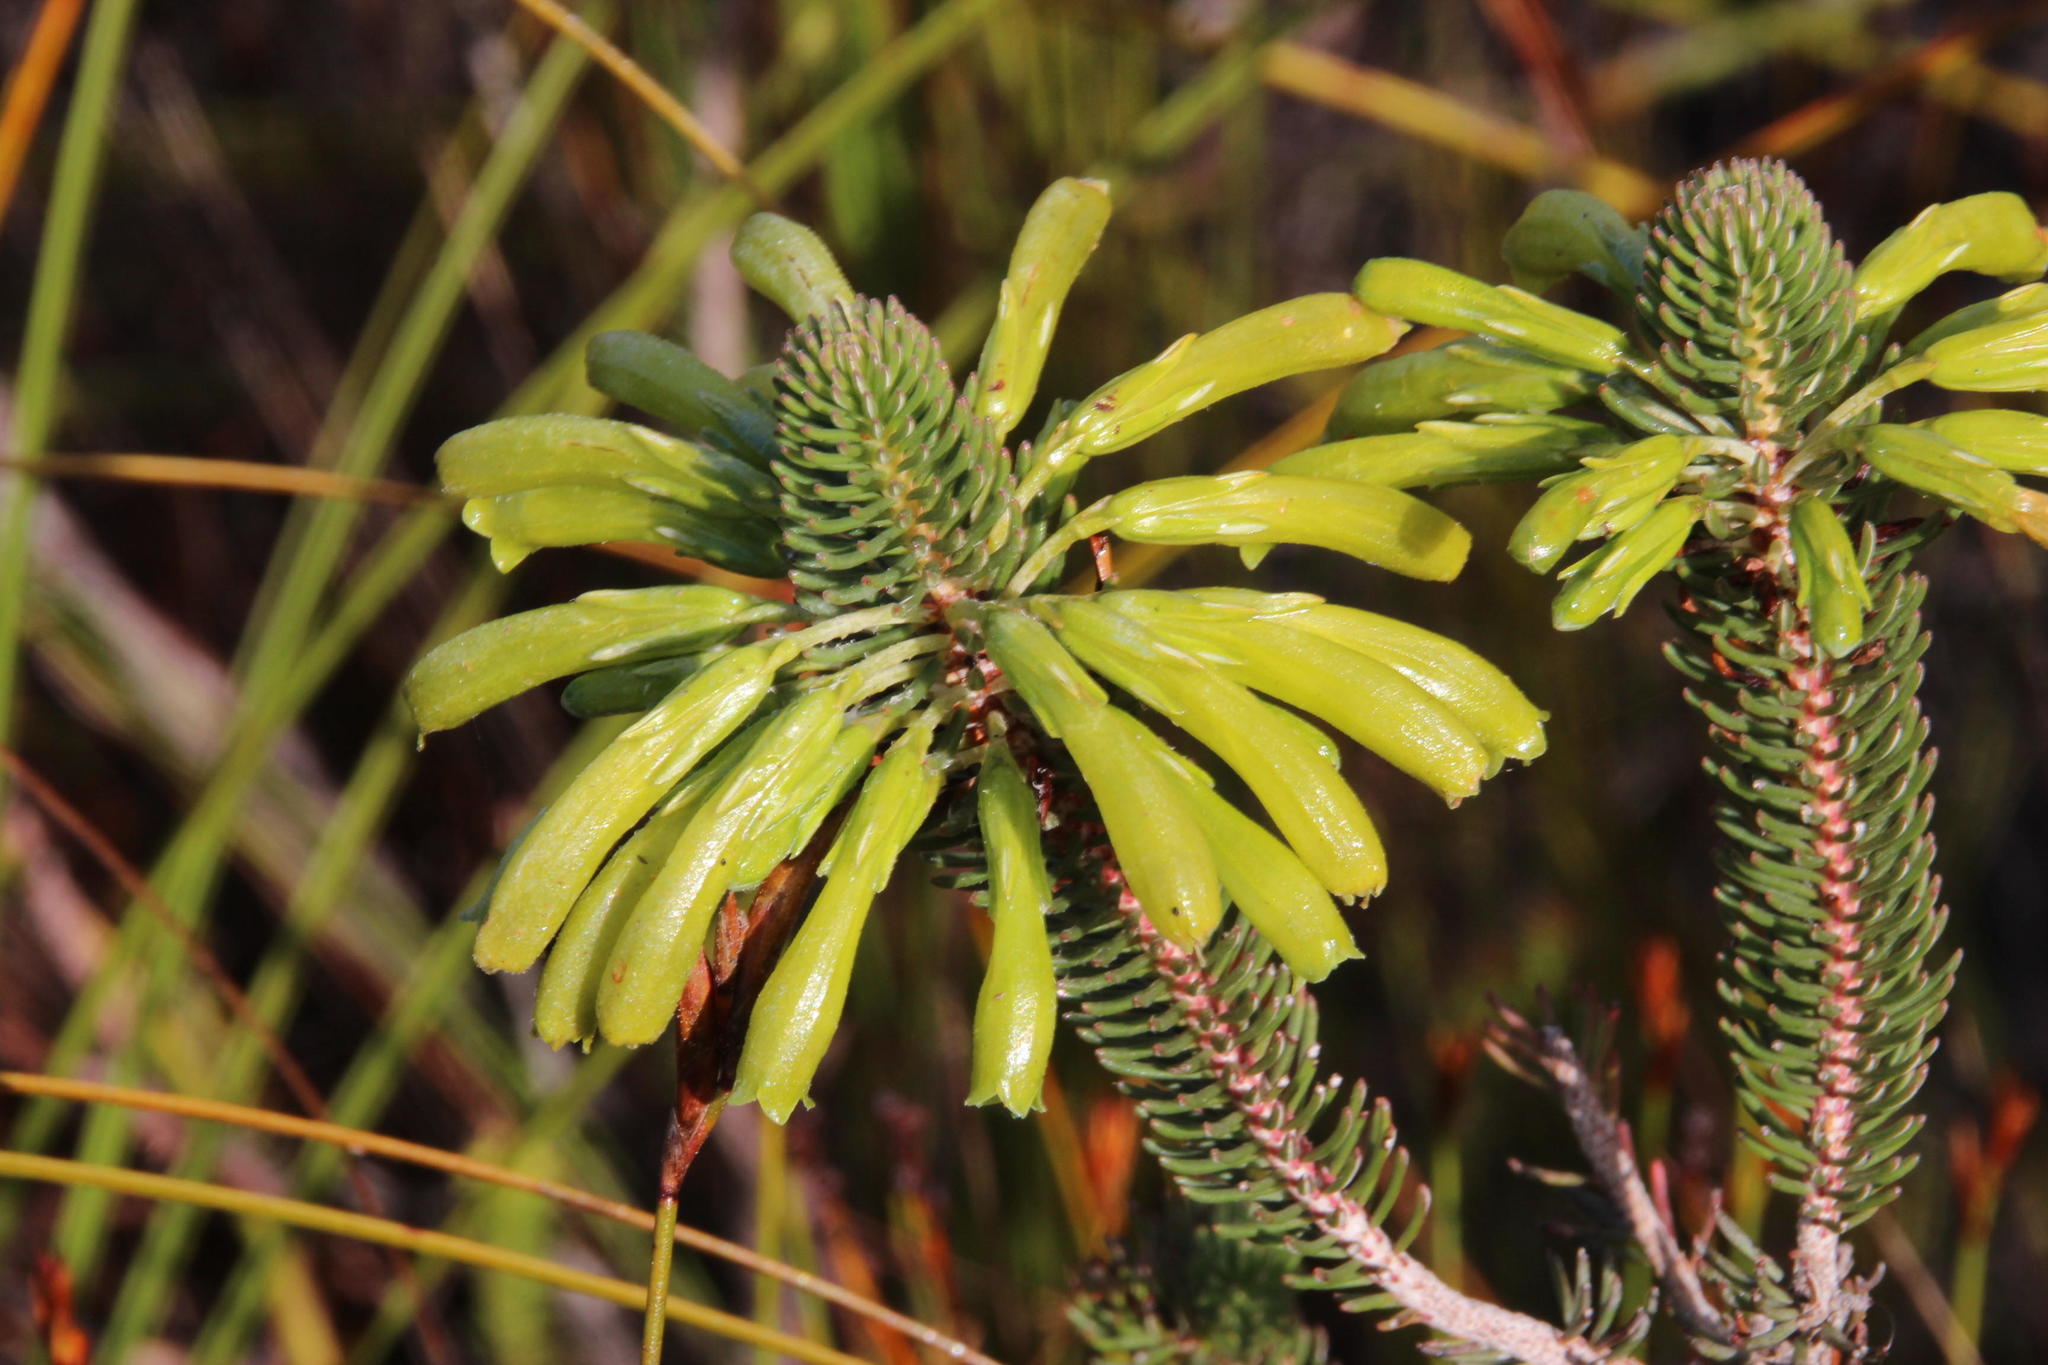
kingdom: Plantae
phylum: Tracheophyta
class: Magnoliopsida
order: Ericales
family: Ericaceae
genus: Erica
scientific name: Erica thomae
